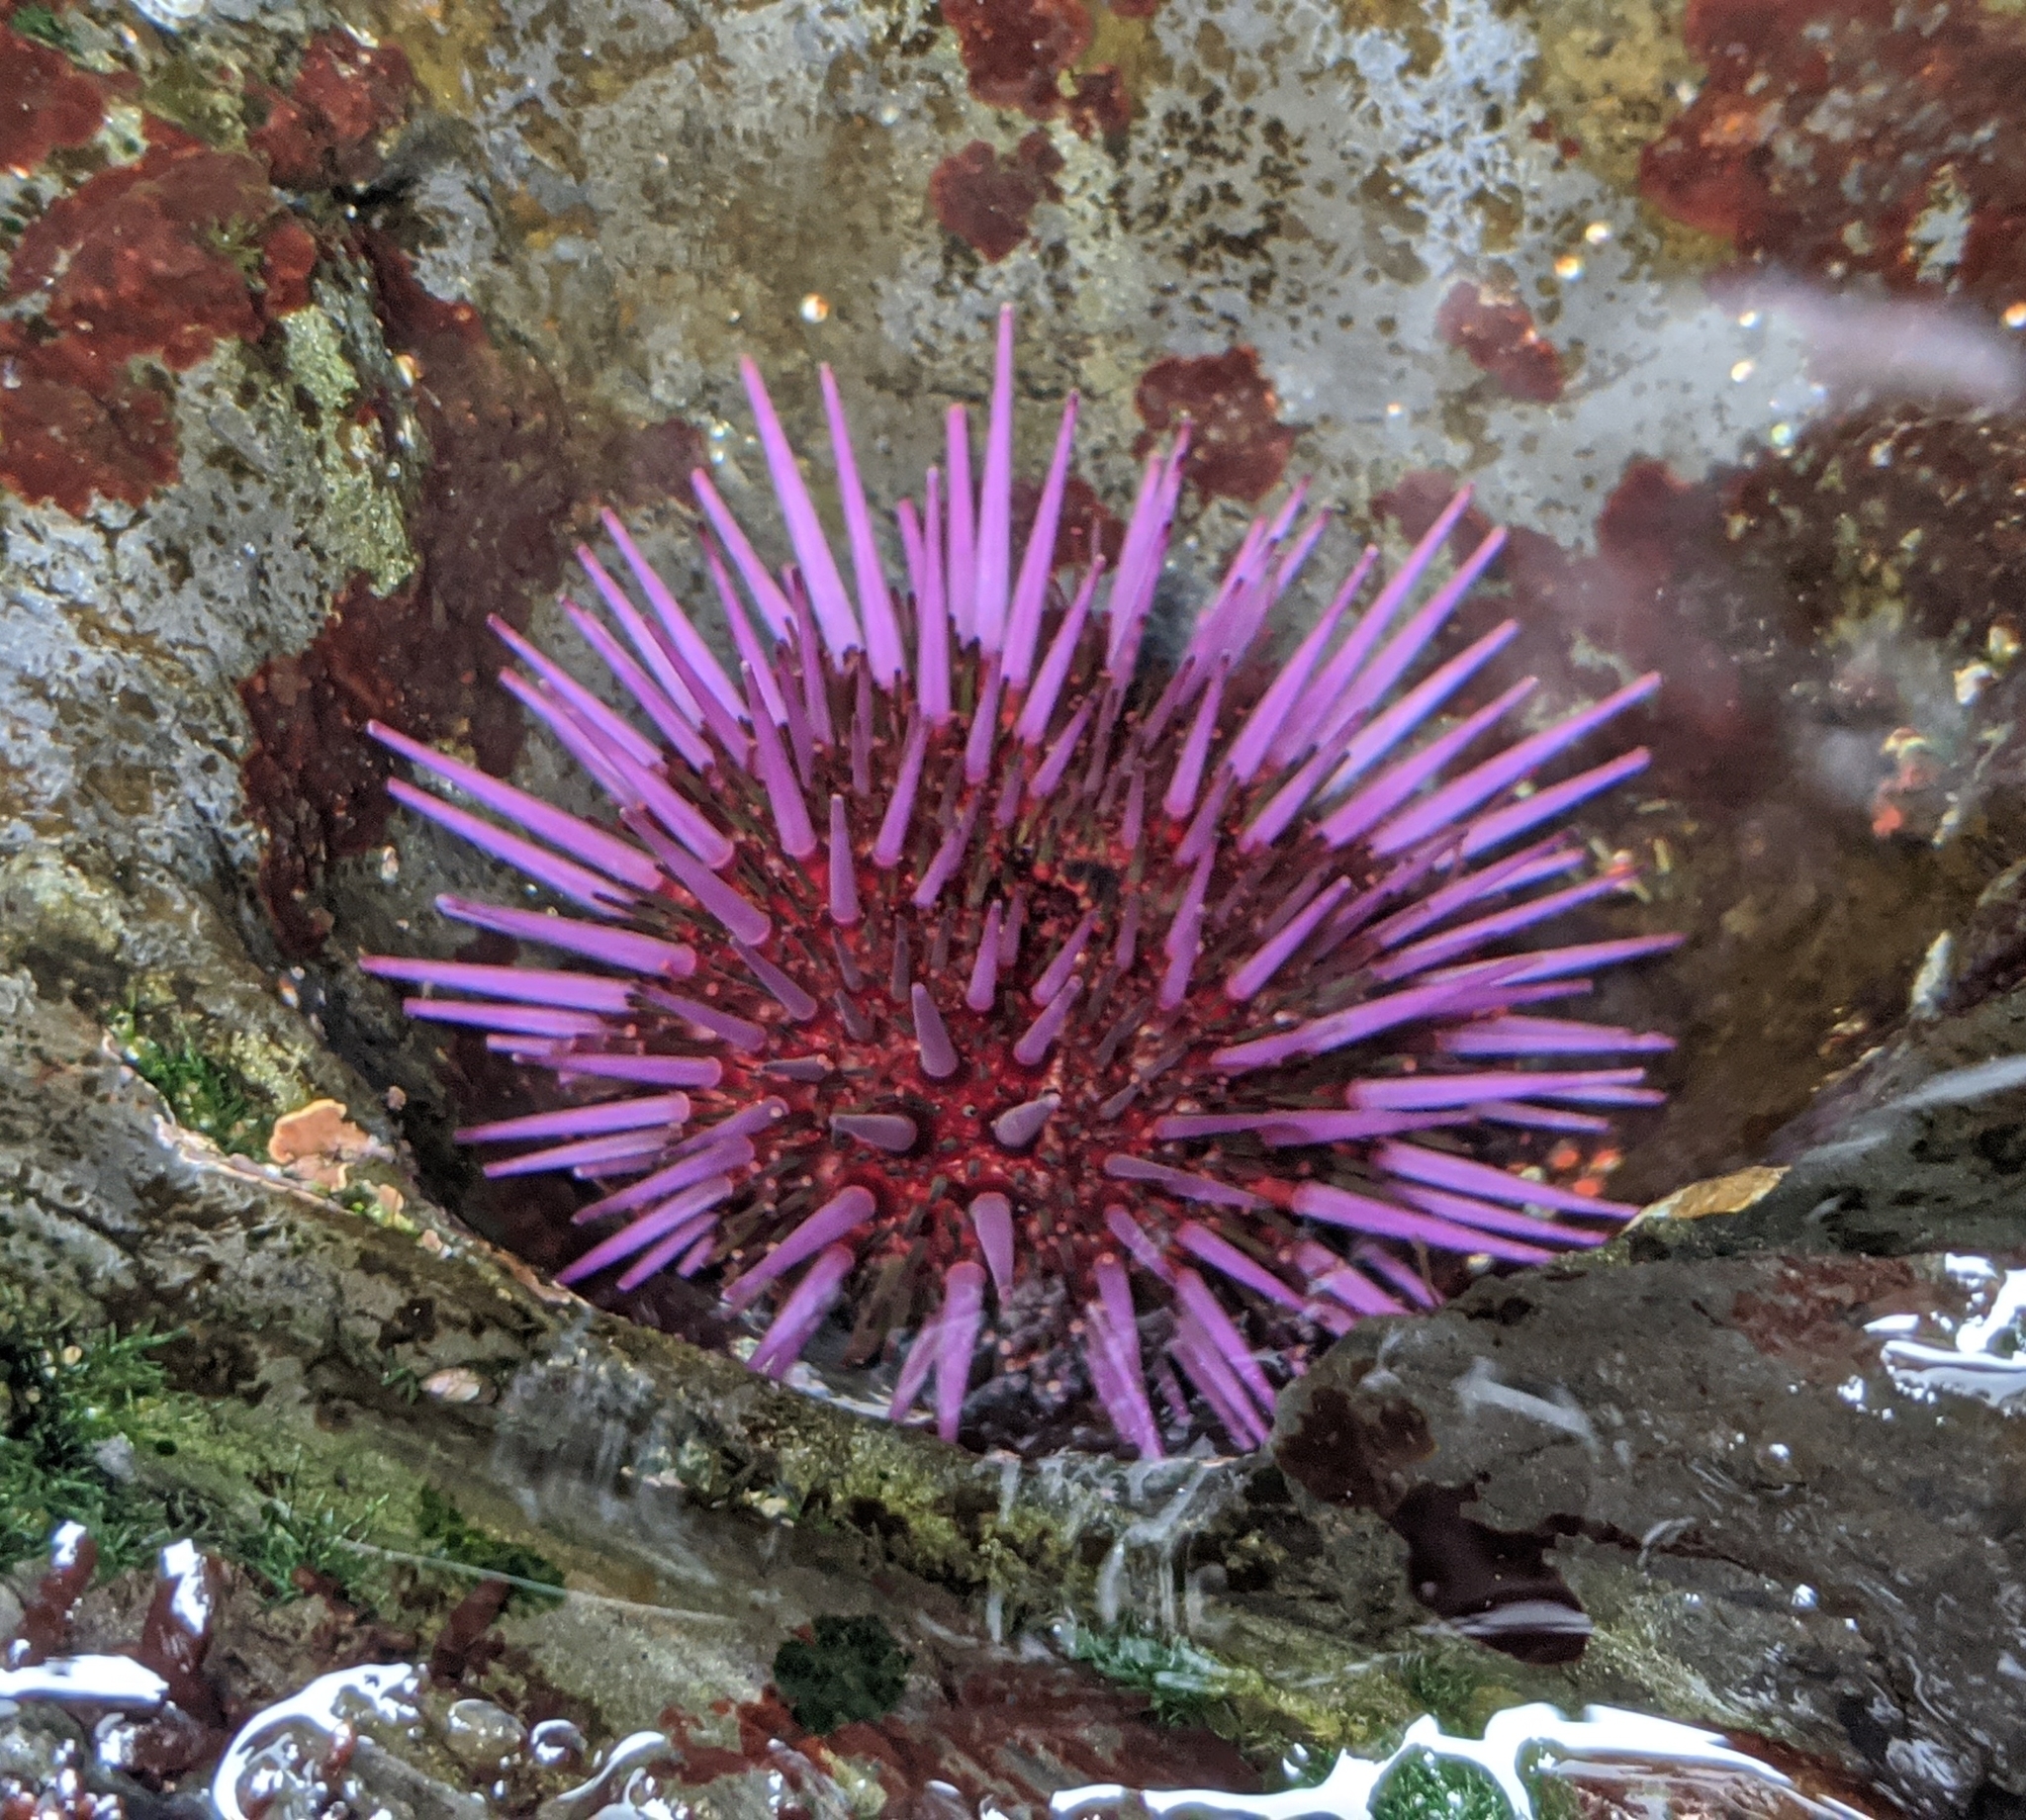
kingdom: Animalia
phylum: Echinodermata
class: Echinoidea
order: Camarodonta
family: Strongylocentrotidae
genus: Strongylocentrotus
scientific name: Strongylocentrotus purpuratus
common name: Purple sea urchin
